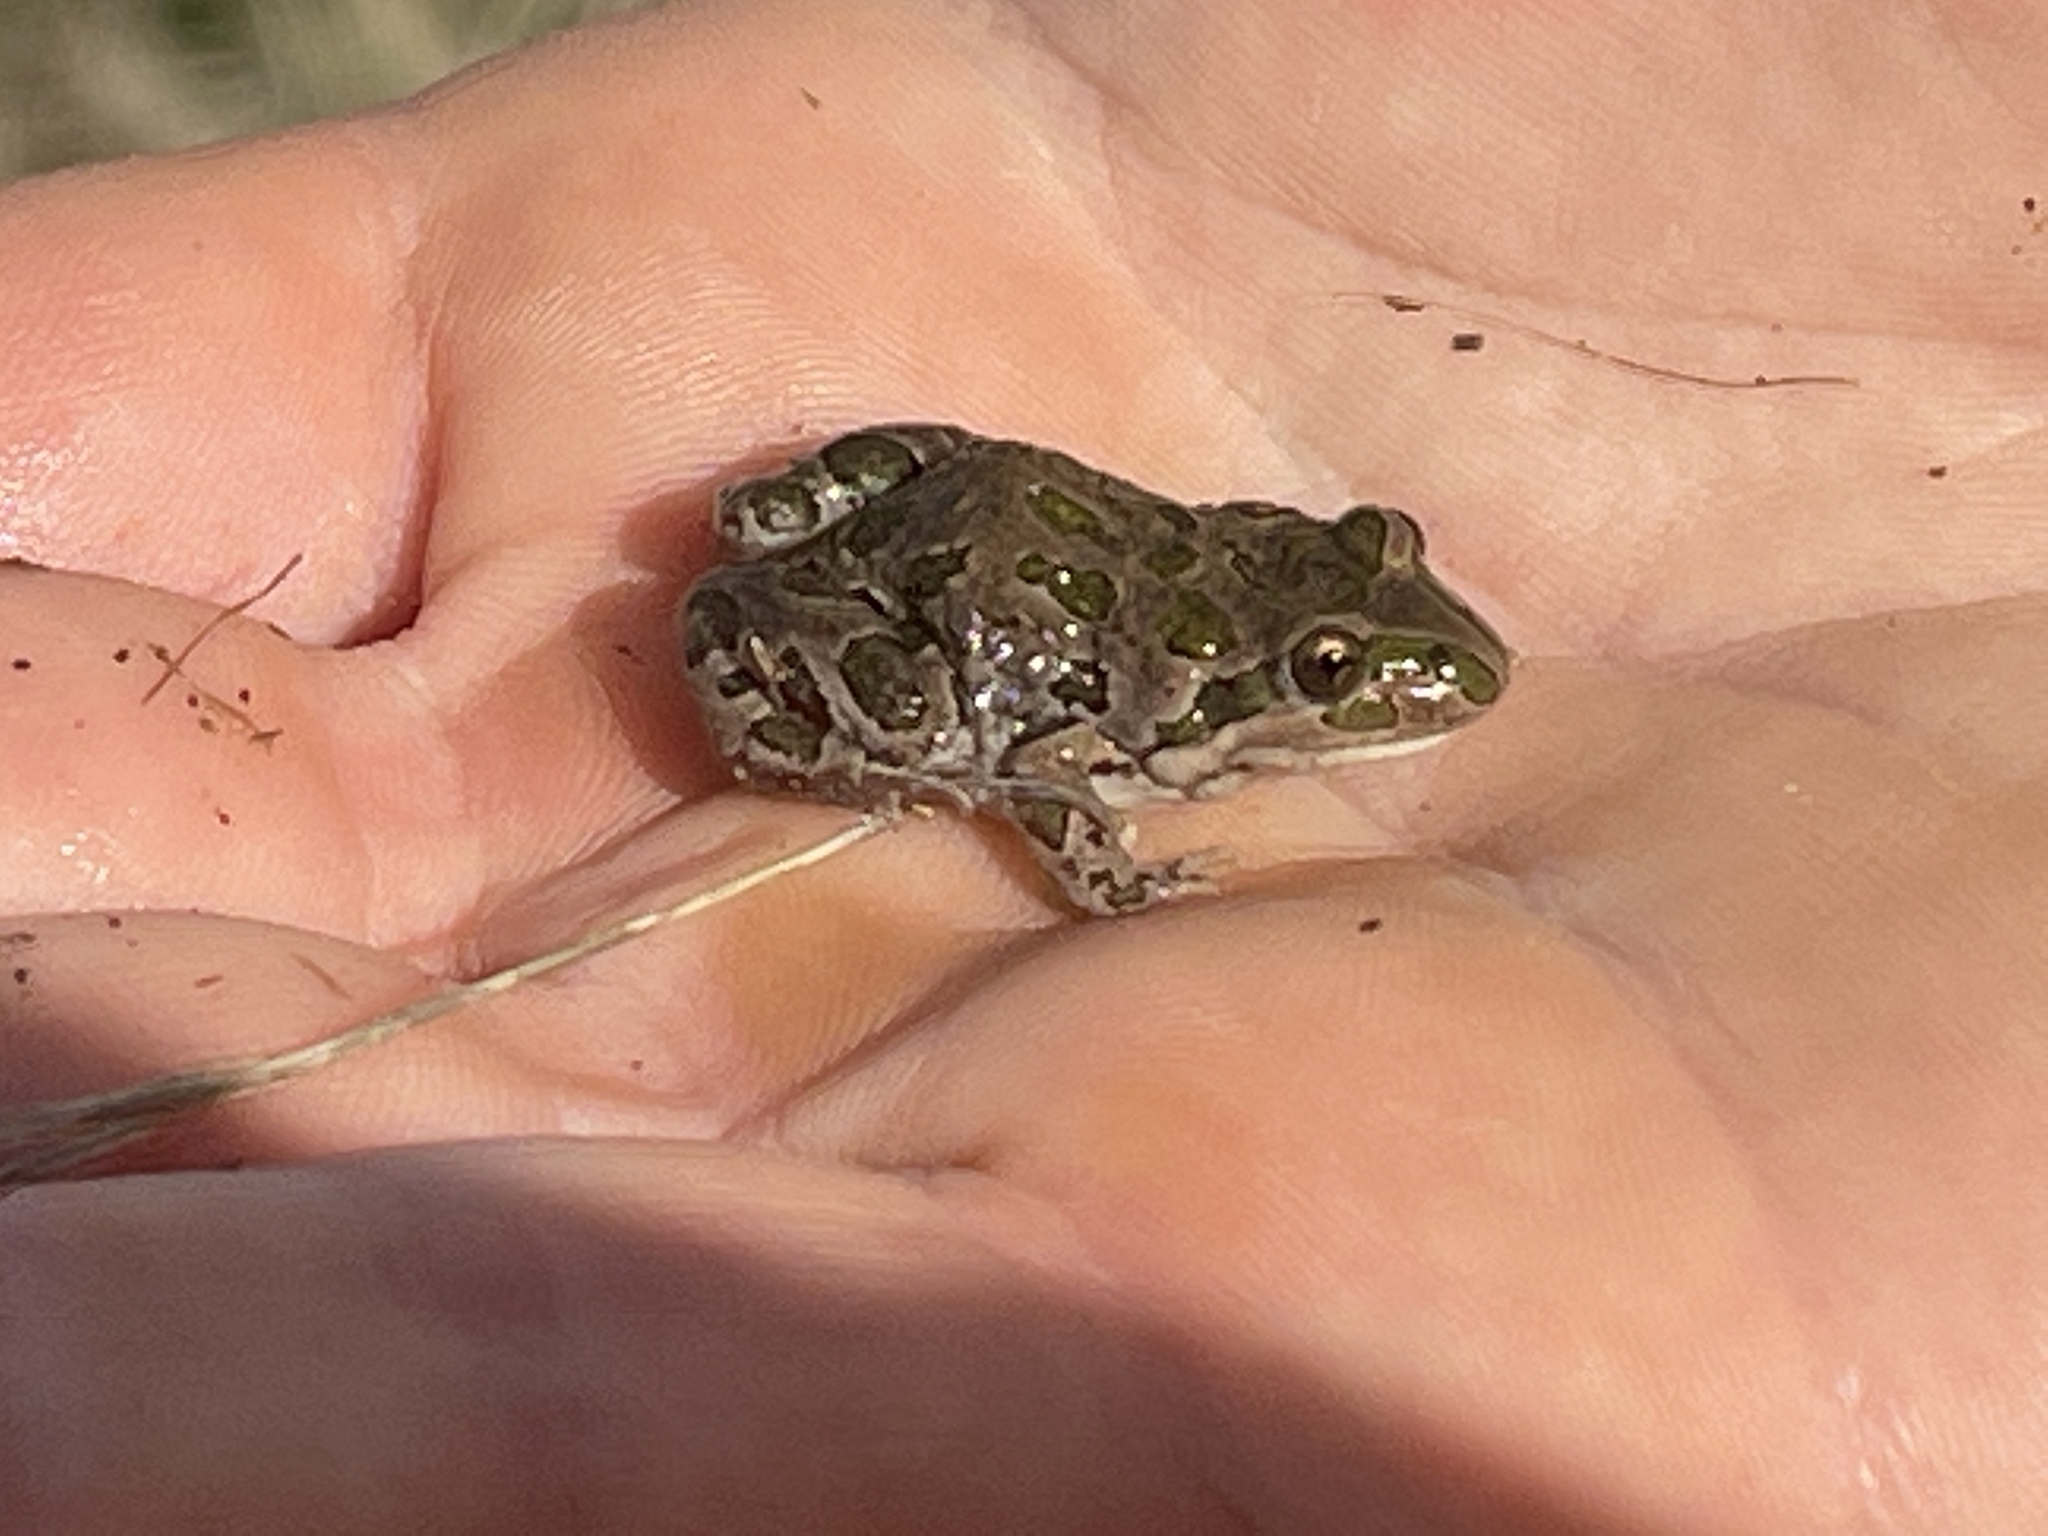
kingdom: Animalia
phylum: Chordata
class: Amphibia
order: Anura
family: Limnodynastidae
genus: Limnodynastes
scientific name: Limnodynastes tasmaniensis
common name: Spotted marsh frog
